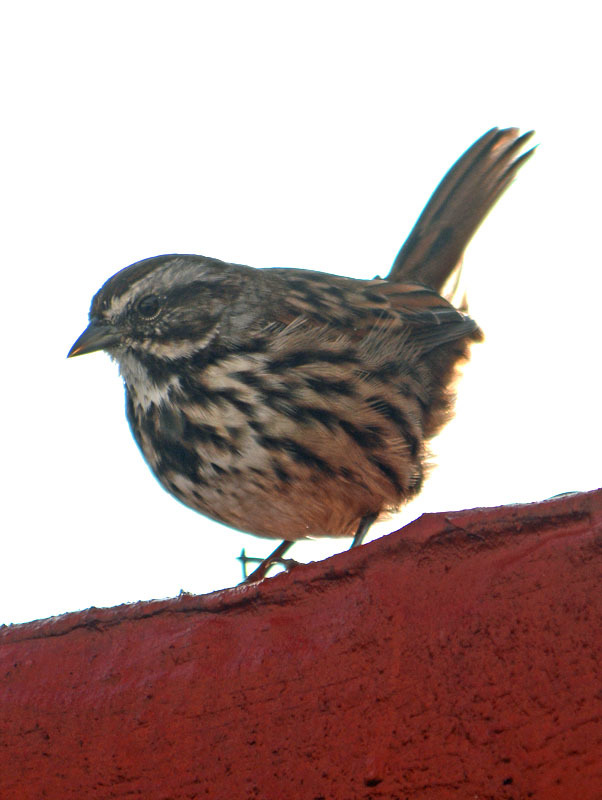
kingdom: Animalia
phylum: Chordata
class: Aves
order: Passeriformes
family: Passerellidae
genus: Melospiza
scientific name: Melospiza melodia
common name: Song sparrow
